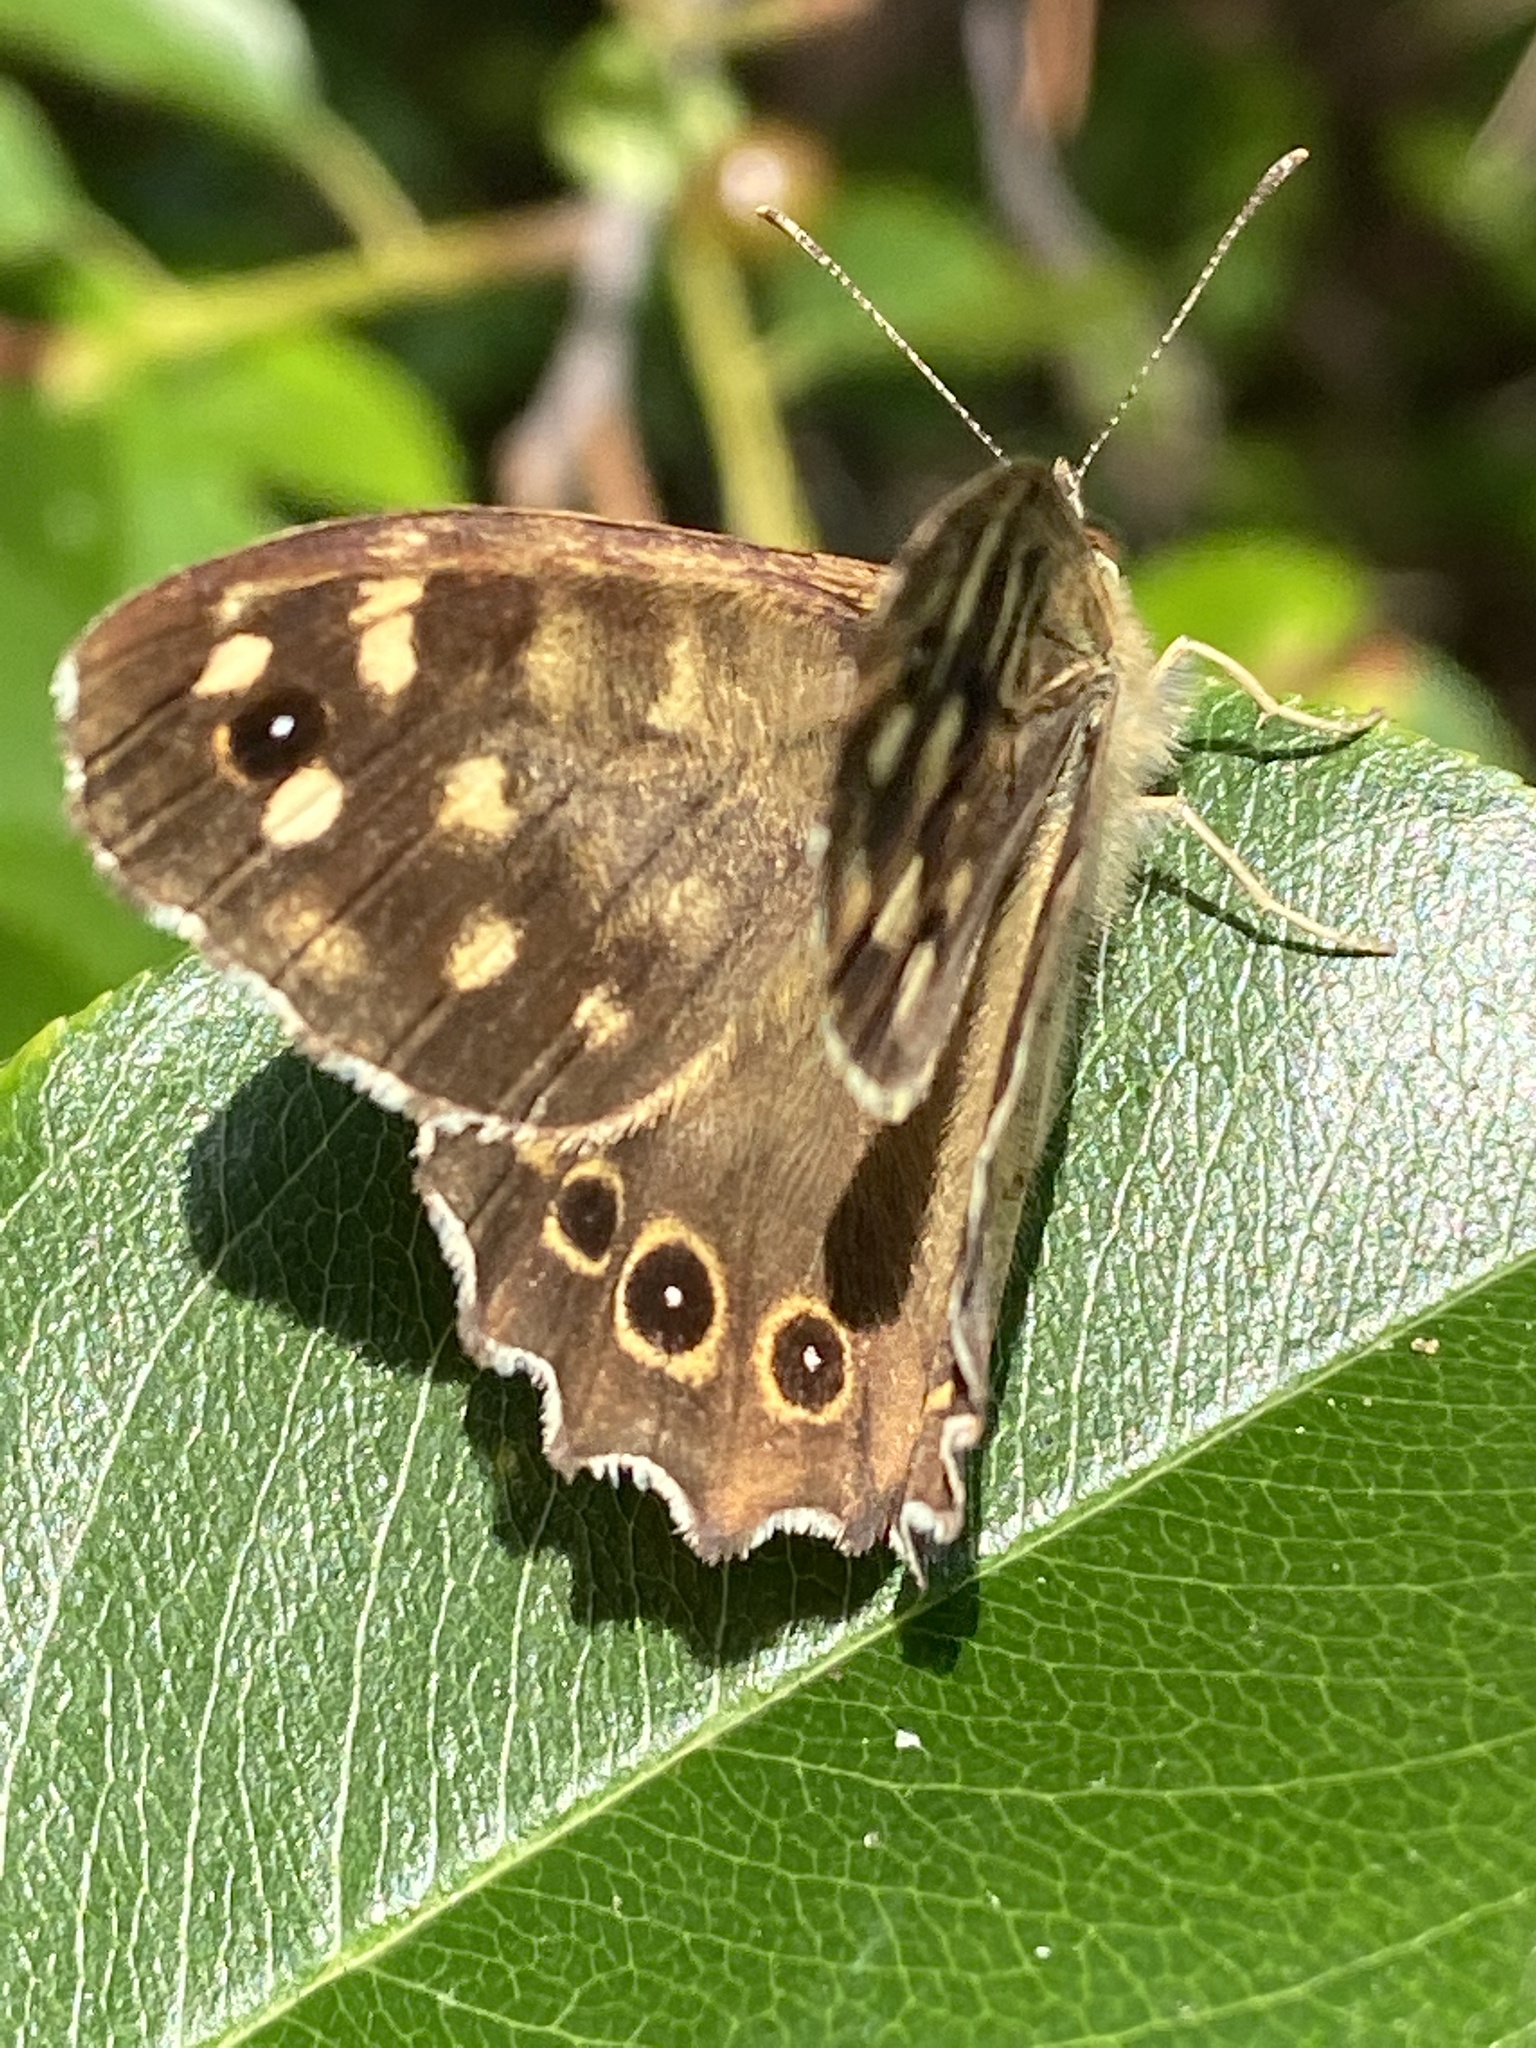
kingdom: Animalia
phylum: Arthropoda
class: Insecta
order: Lepidoptera
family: Nymphalidae
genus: Pararge
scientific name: Pararge aegeria
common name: Speckled wood
